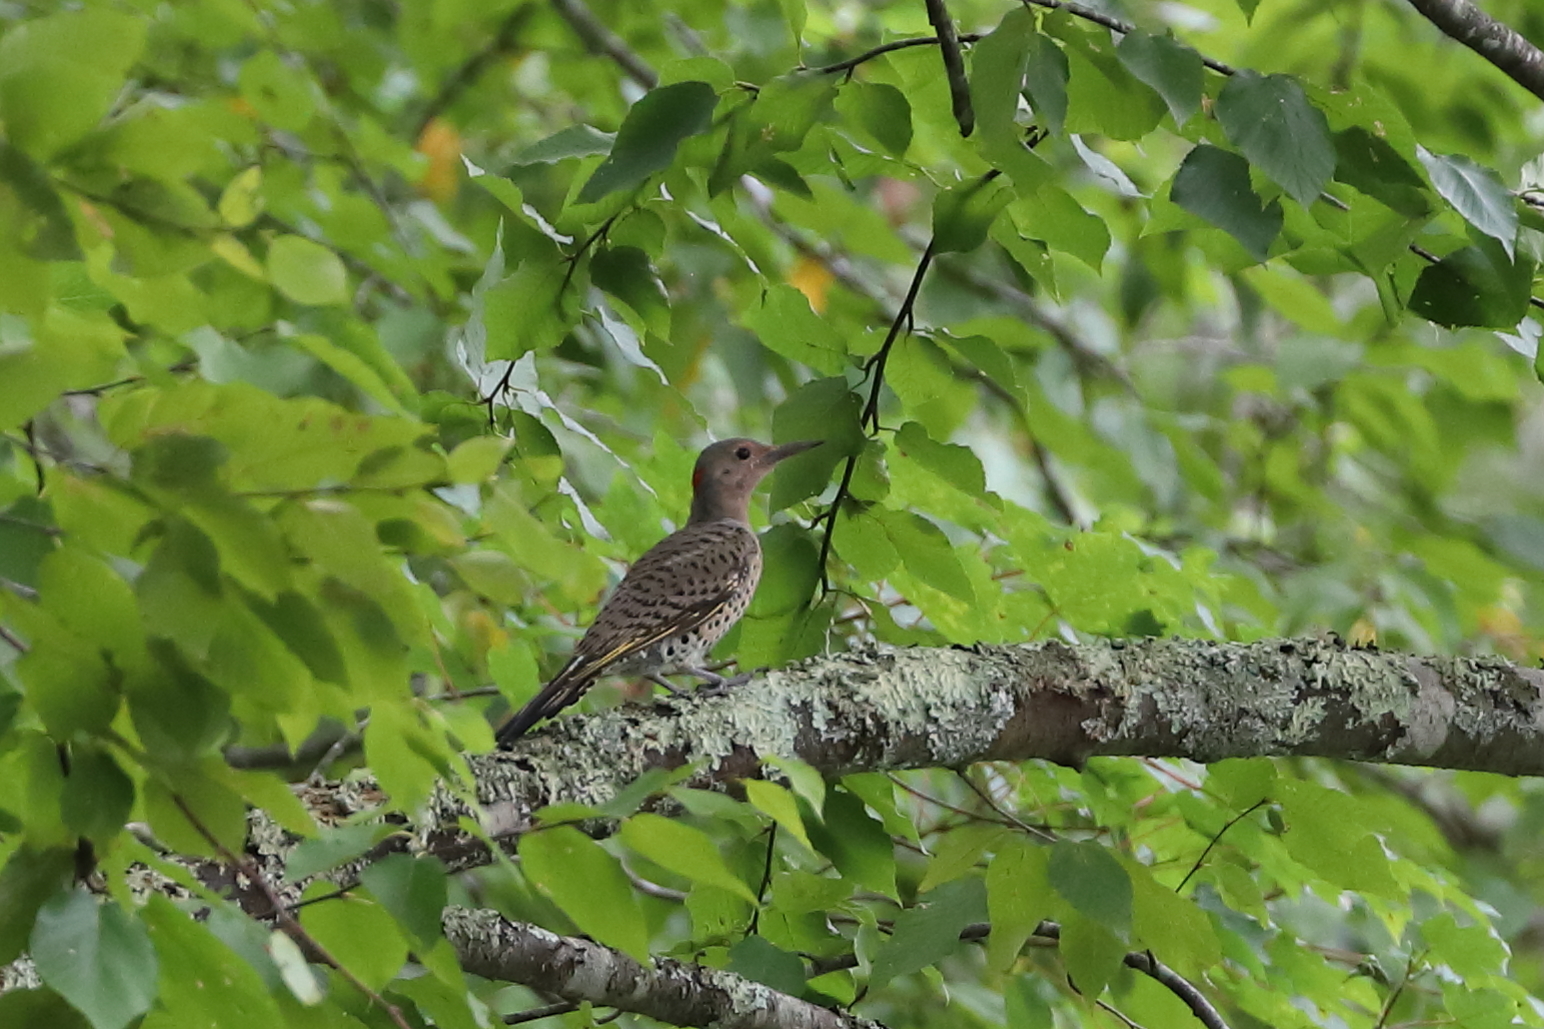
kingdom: Animalia
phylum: Chordata
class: Aves
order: Piciformes
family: Picidae
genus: Colaptes
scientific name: Colaptes auratus
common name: Northern flicker
